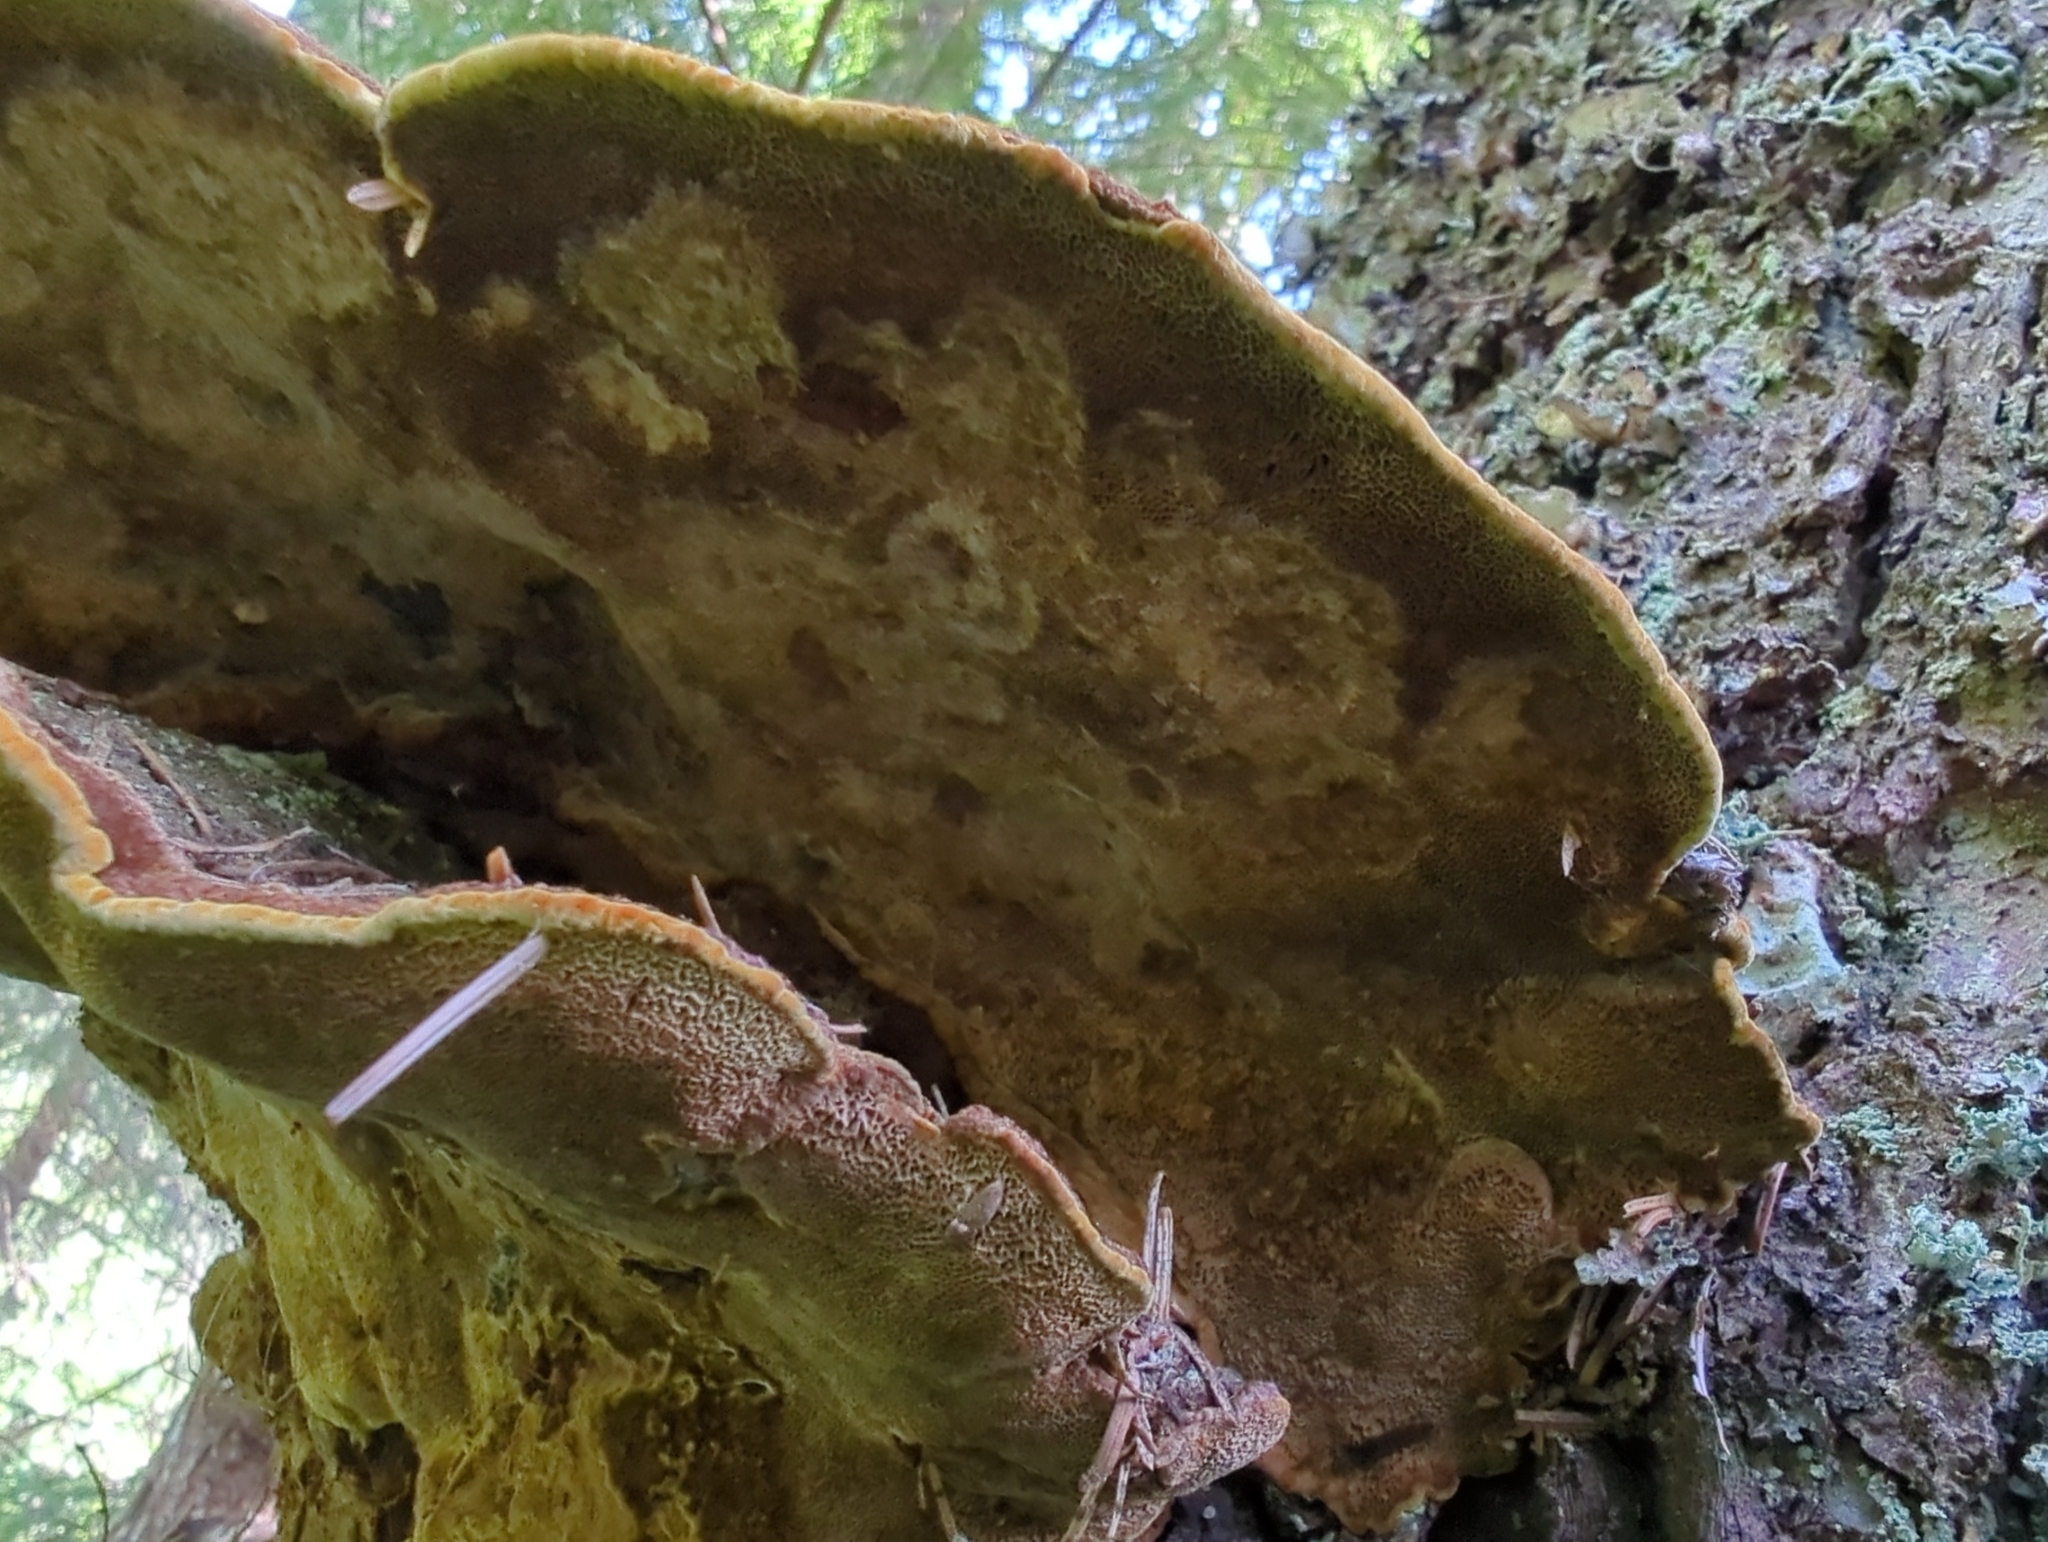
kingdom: Fungi
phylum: Basidiomycota
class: Agaricomycetes
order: Hymenochaetales
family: Hymenochaetaceae
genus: Porodaedalea
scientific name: Porodaedalea pini
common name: Pine bracket
